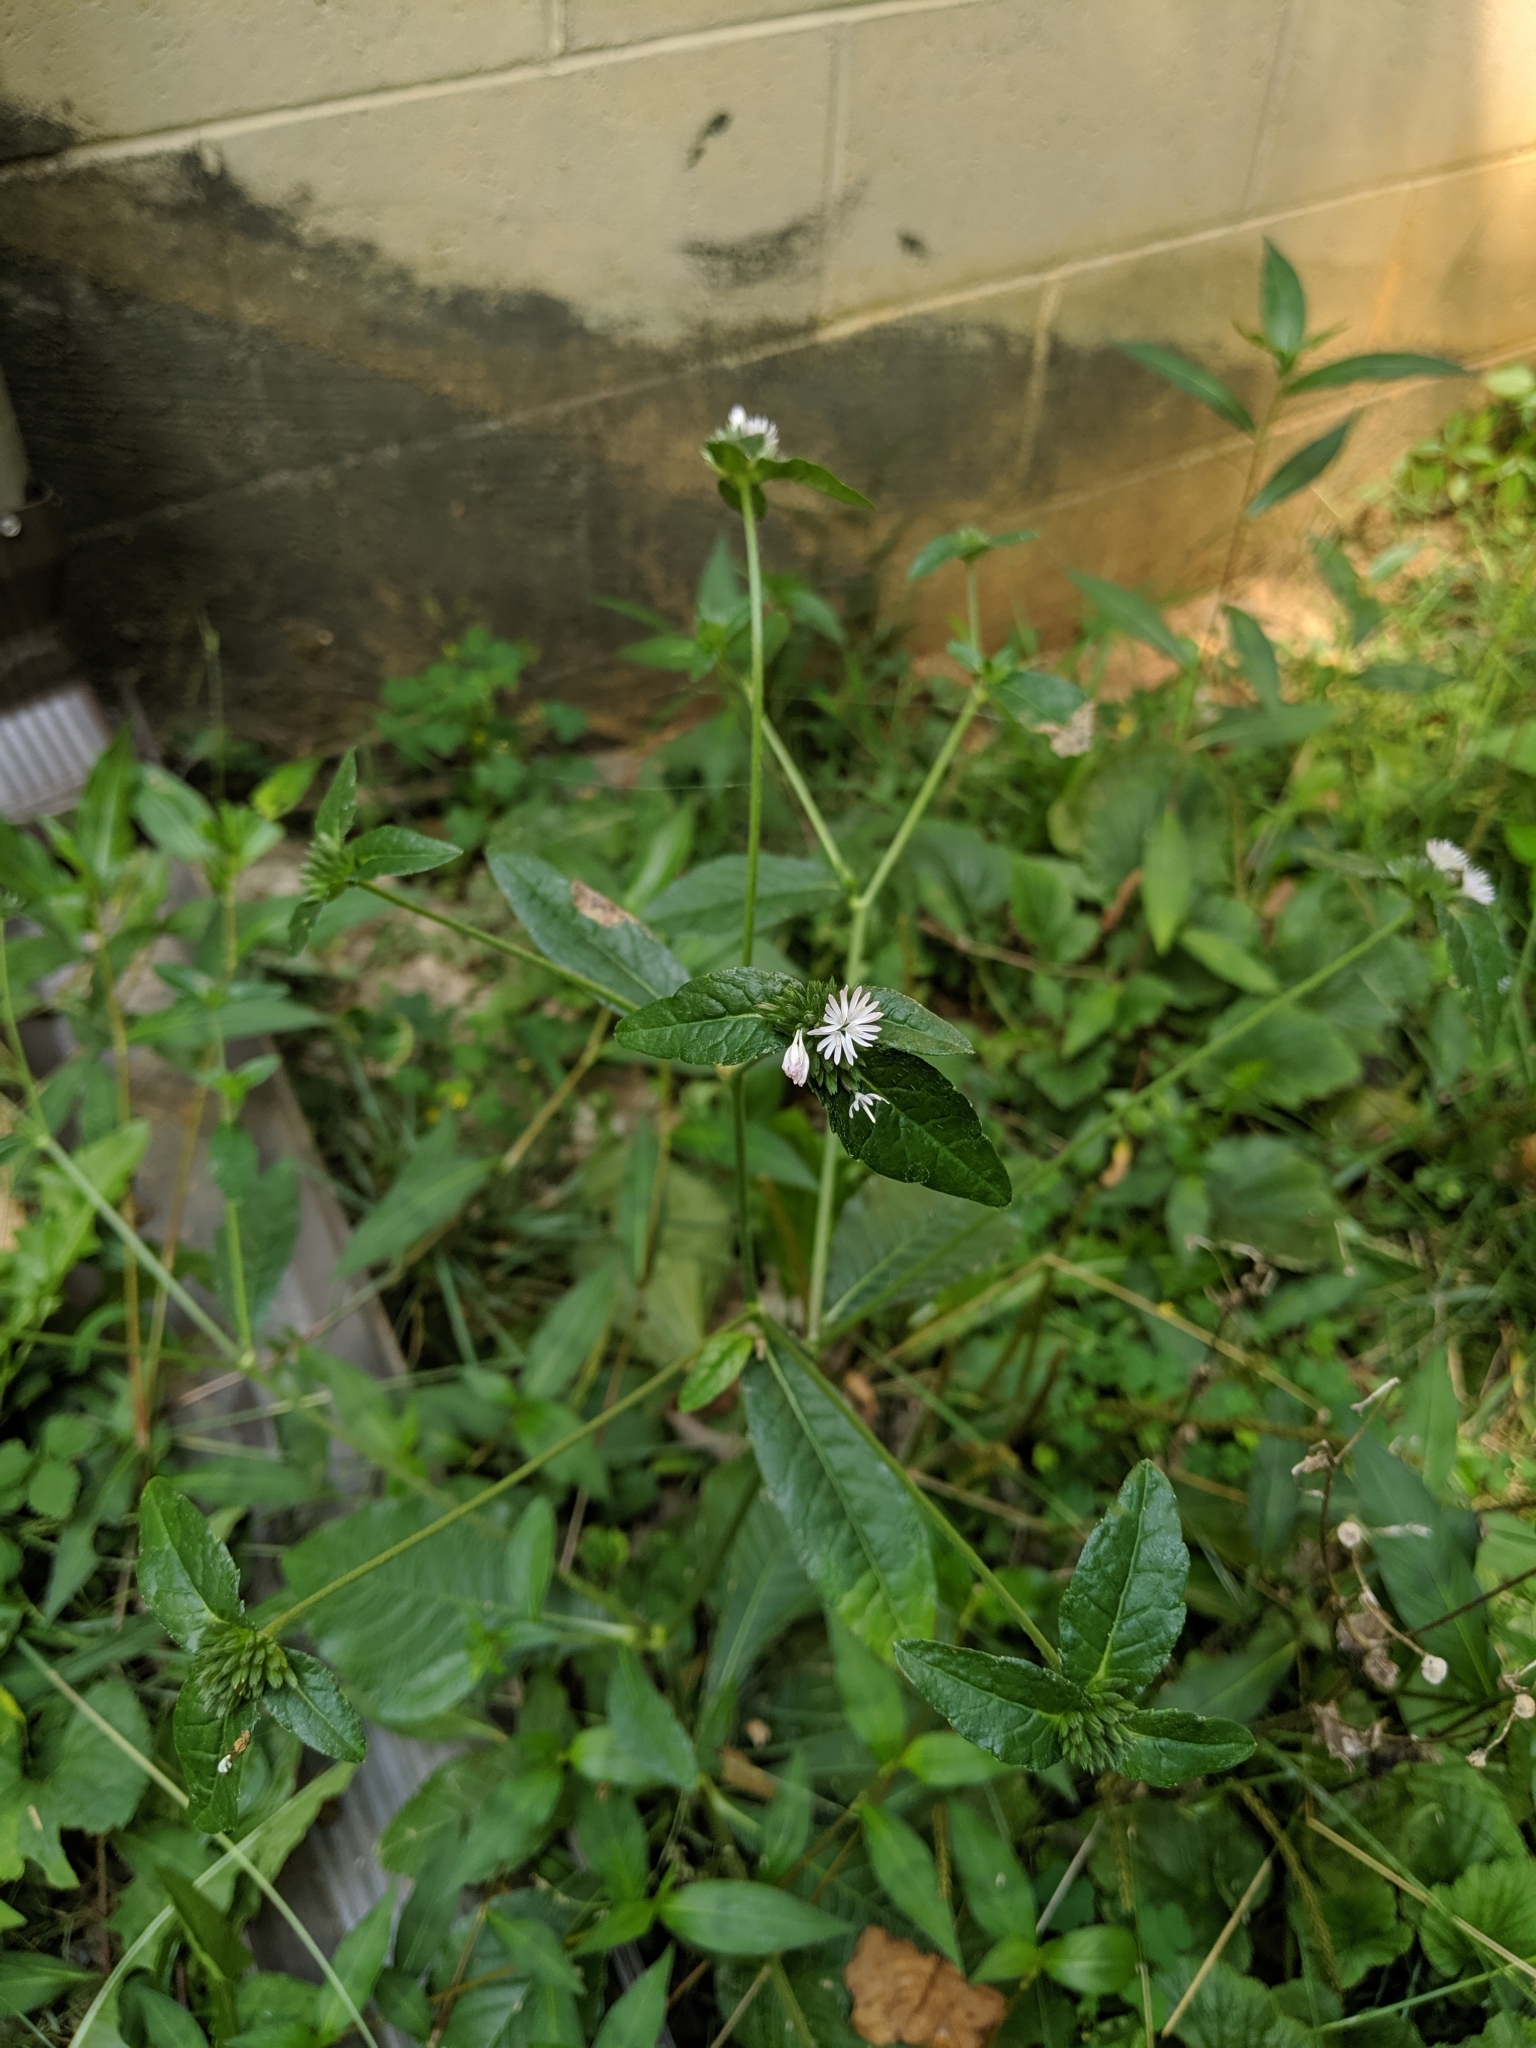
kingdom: Plantae
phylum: Tracheophyta
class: Magnoliopsida
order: Asterales
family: Asteraceae
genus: Elephantopus
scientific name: Elephantopus carolinianus
